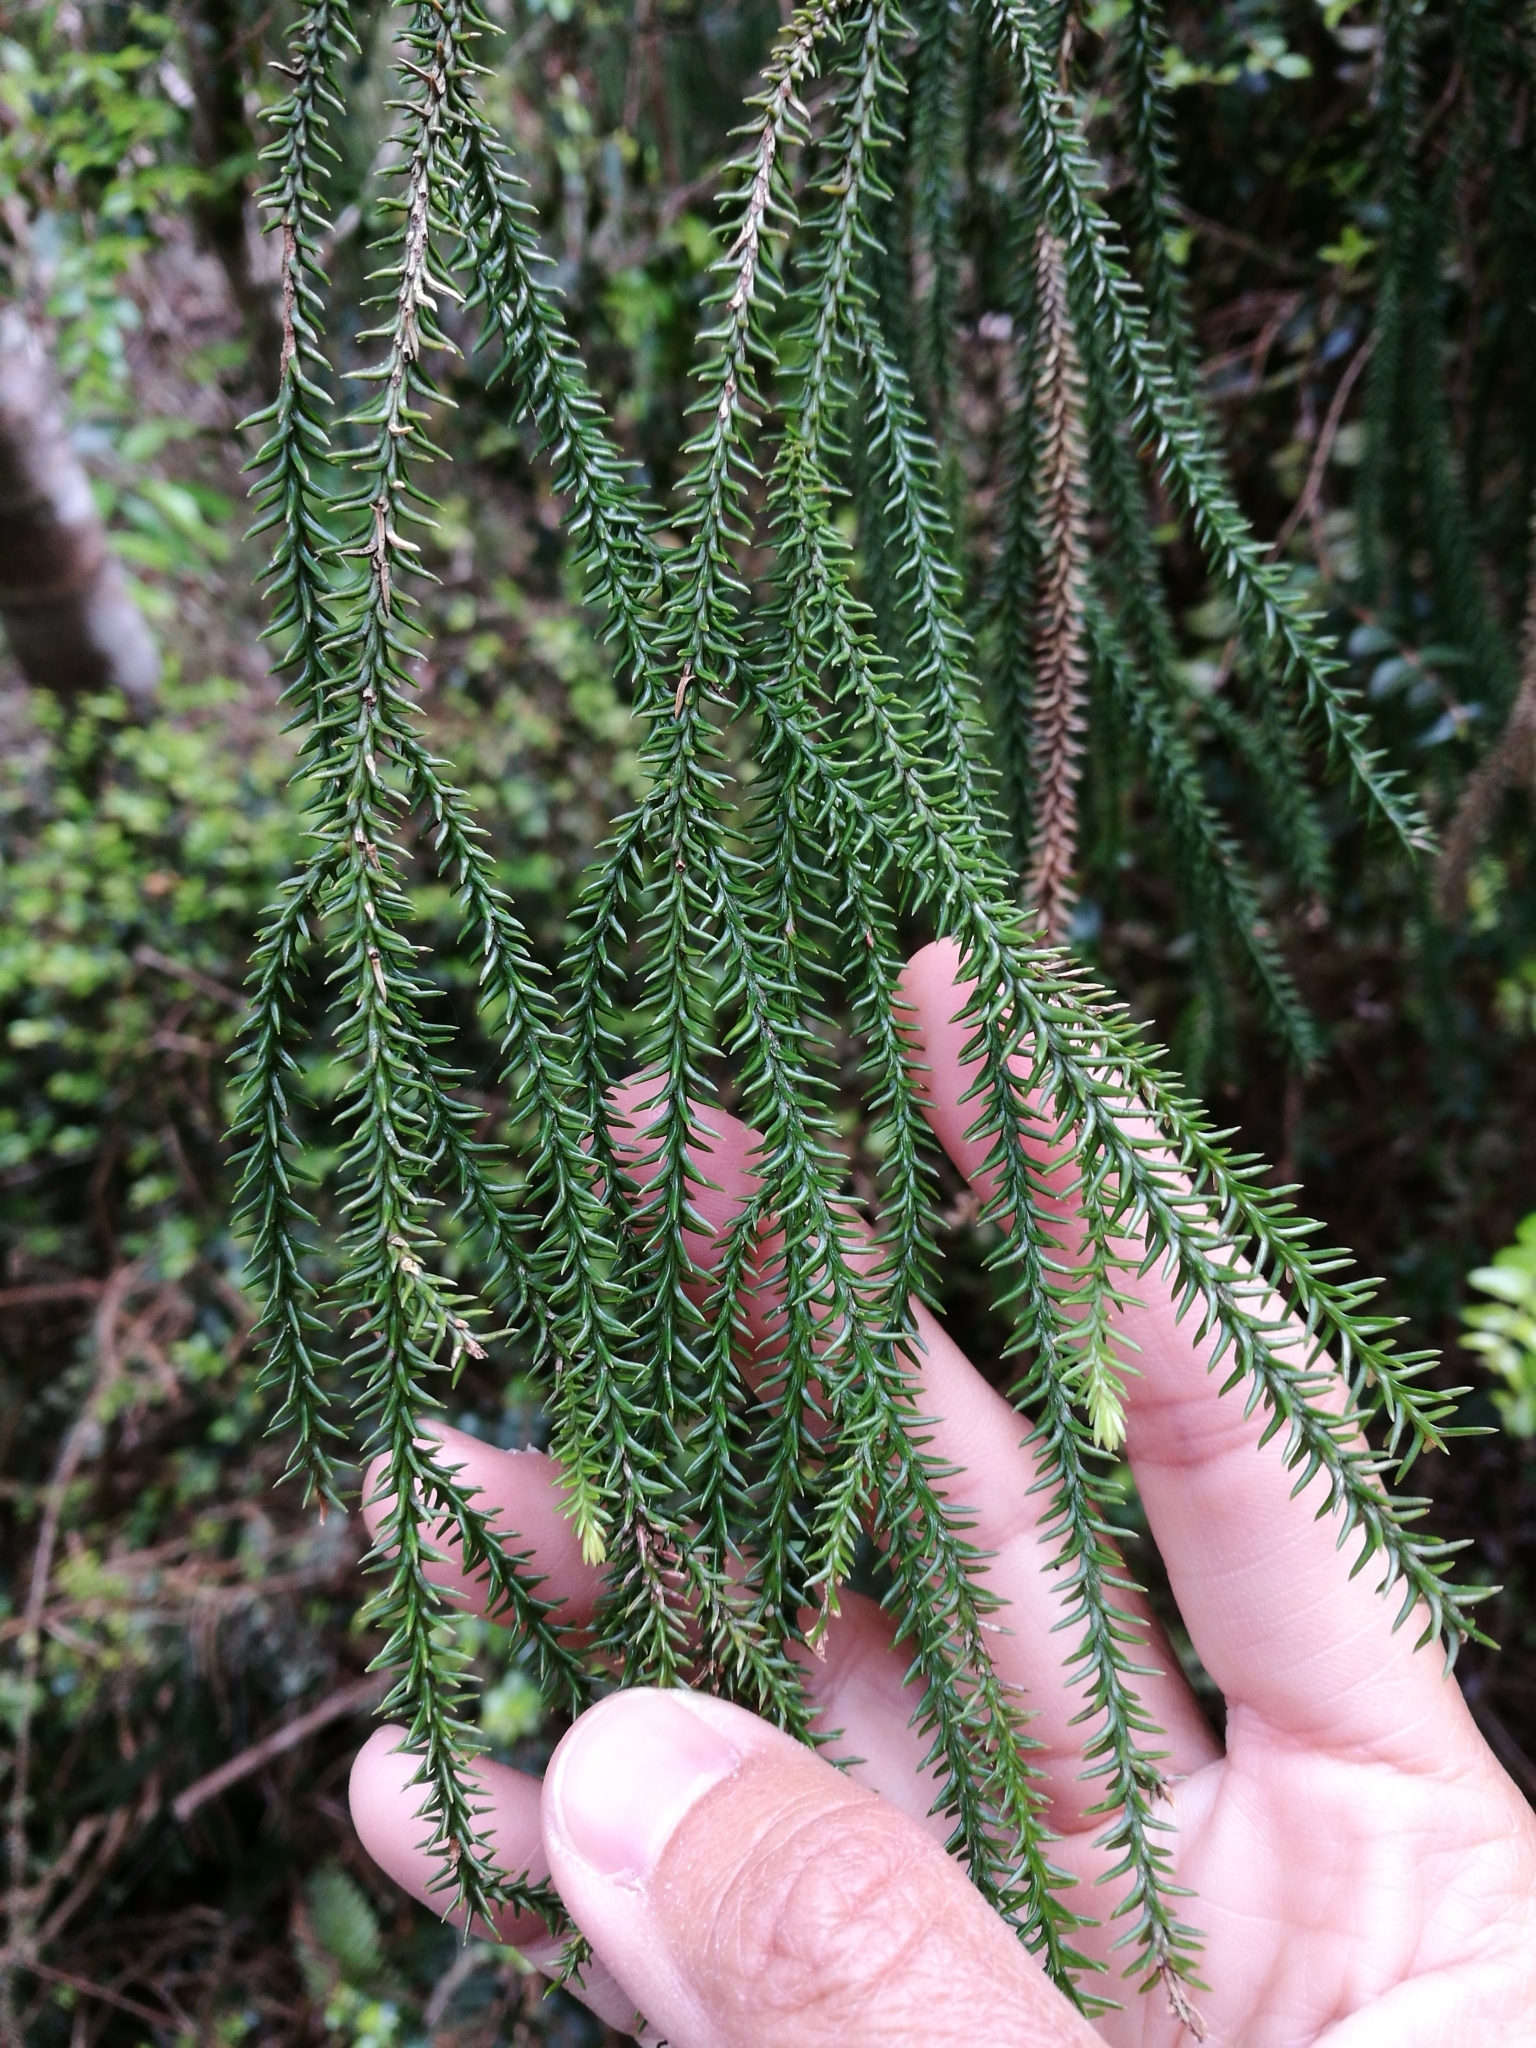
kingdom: Plantae
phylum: Tracheophyta
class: Pinopsida
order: Pinales
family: Podocarpaceae
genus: Dacrydium
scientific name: Dacrydium cupressinum
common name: Red pine
